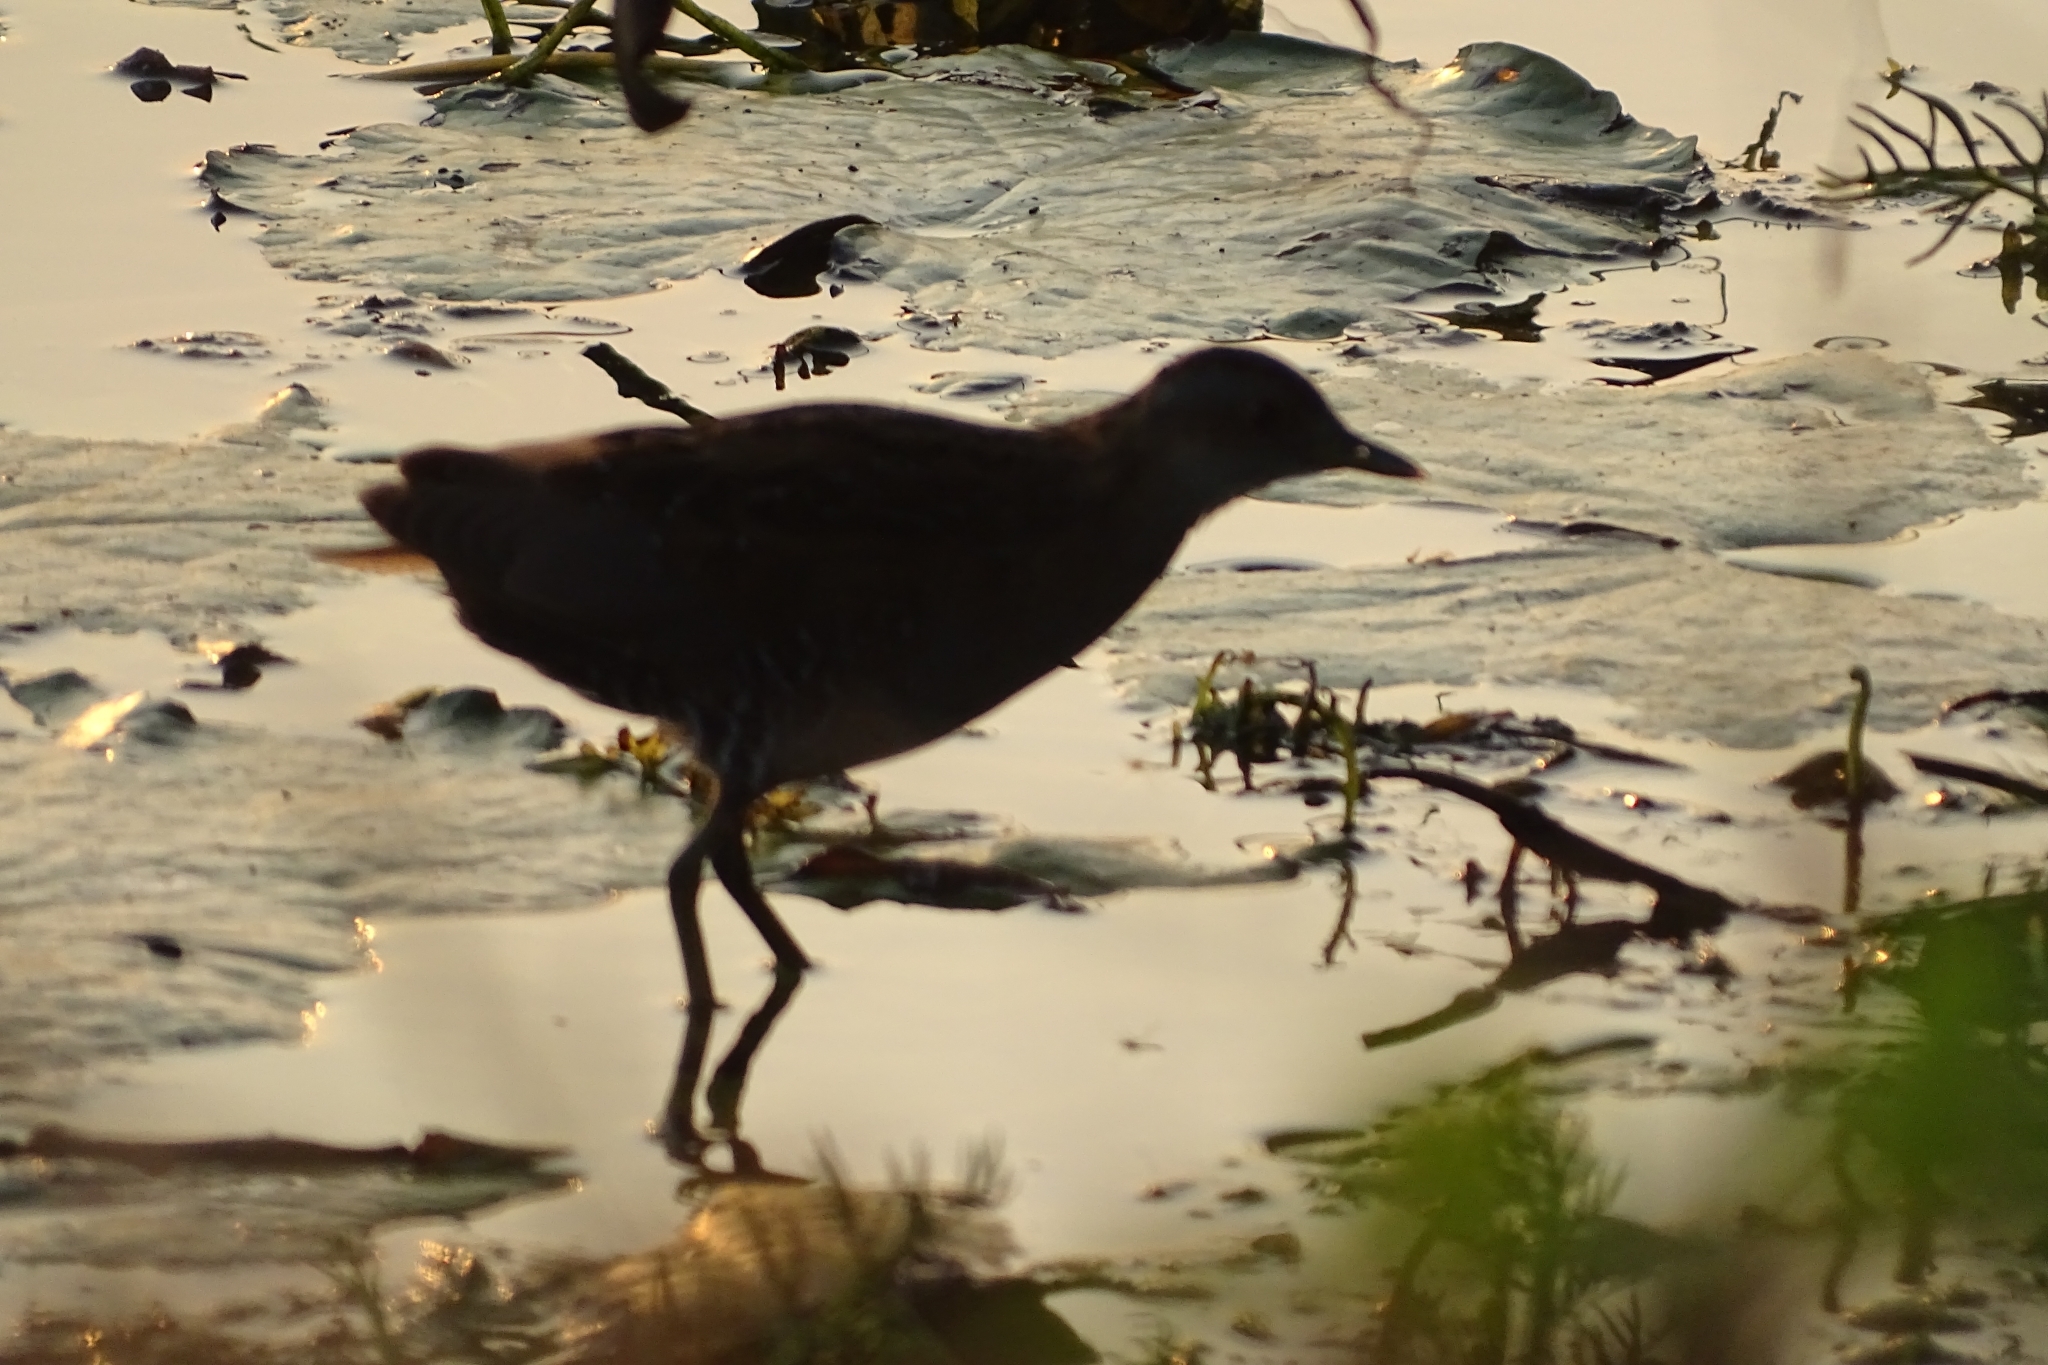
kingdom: Animalia
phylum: Chordata
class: Aves
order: Gruiformes
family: Rallidae
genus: Porzana
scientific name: Porzana pusilla
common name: Baillon's crake
